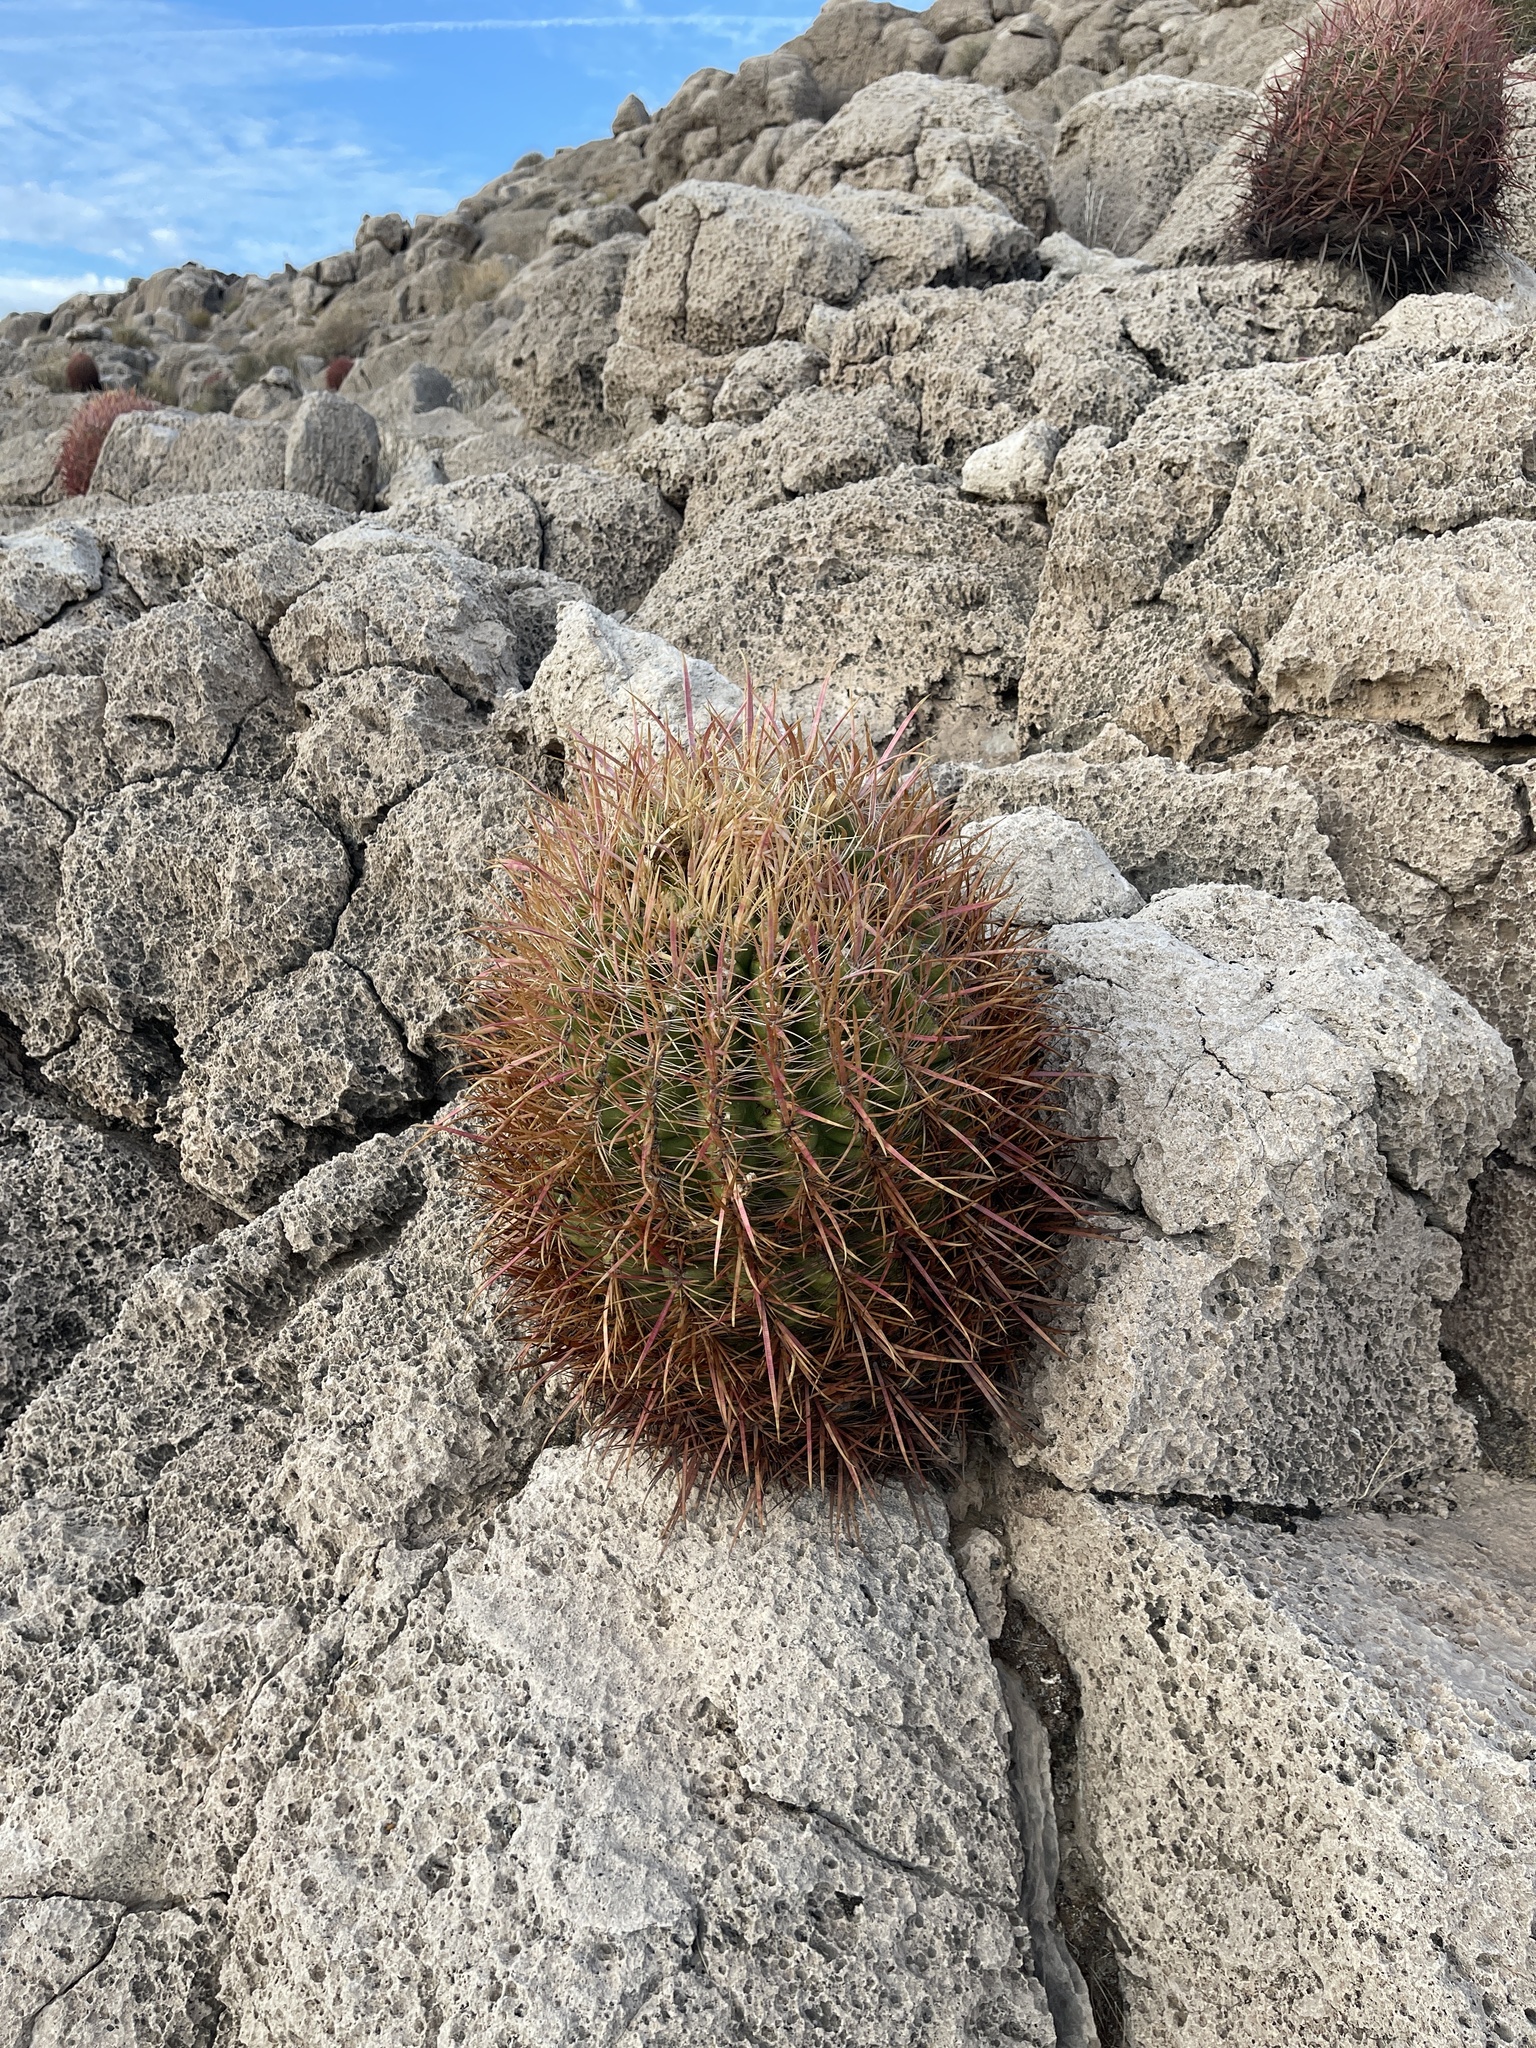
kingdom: Plantae
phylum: Tracheophyta
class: Magnoliopsida
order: Caryophyllales
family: Cactaceae
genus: Ferocactus
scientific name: Ferocactus cylindraceus
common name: California barrel cactus
